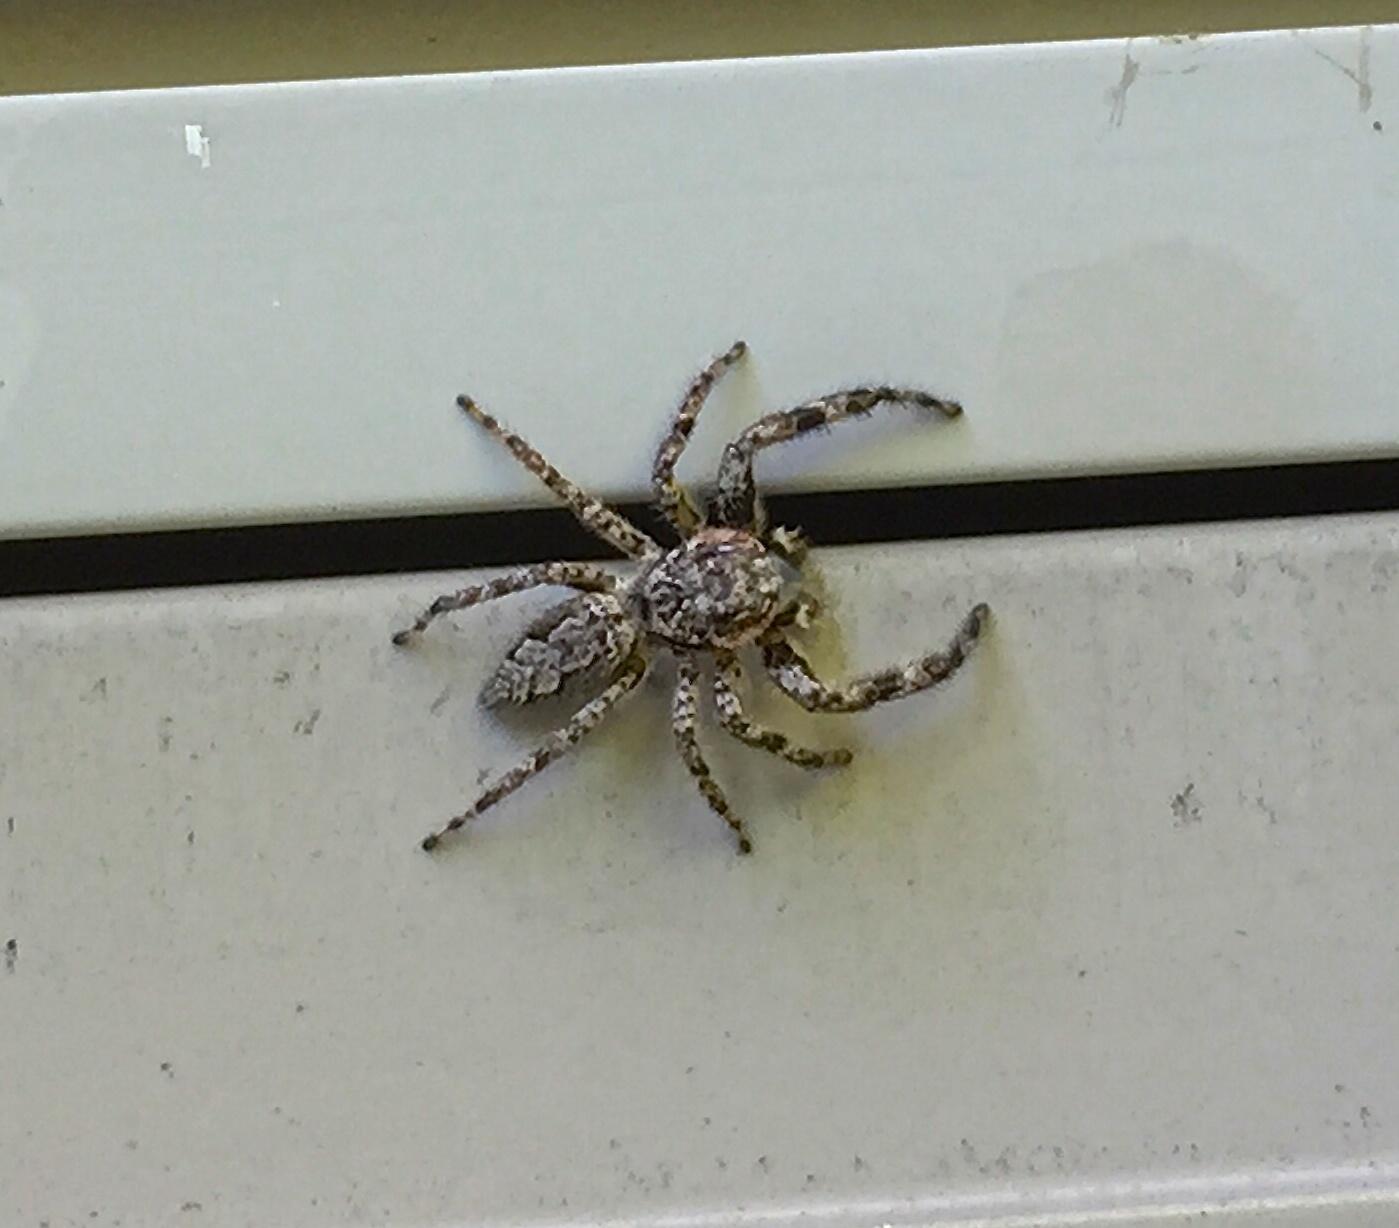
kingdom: Animalia
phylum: Arthropoda
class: Arachnida
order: Araneae
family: Salticidae
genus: Platycryptus
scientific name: Platycryptus undatus
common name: Tan jumping spider
